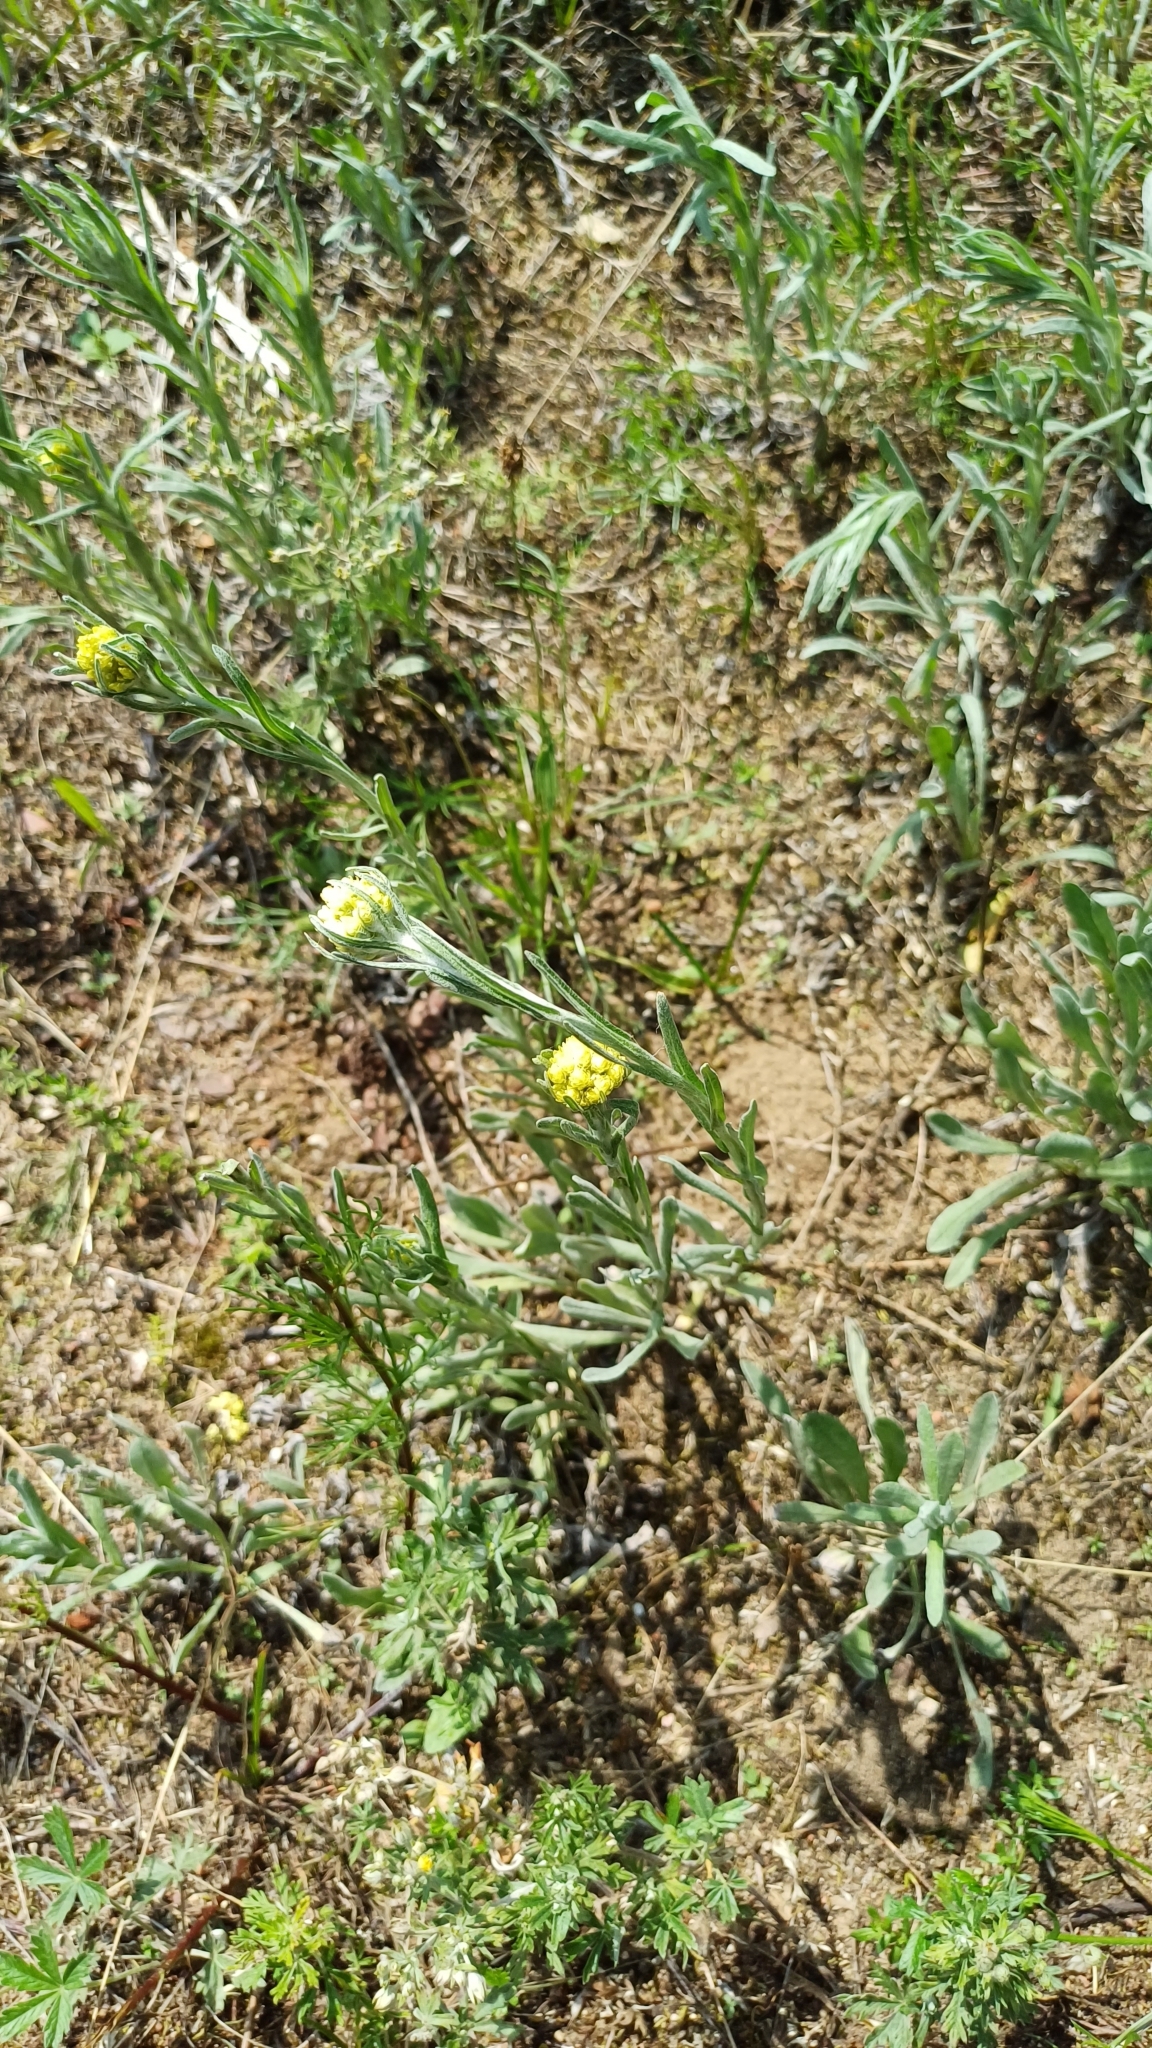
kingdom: Plantae
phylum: Tracheophyta
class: Magnoliopsida
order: Asterales
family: Asteraceae
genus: Helichrysum
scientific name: Helichrysum arenarium
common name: Strawflower
